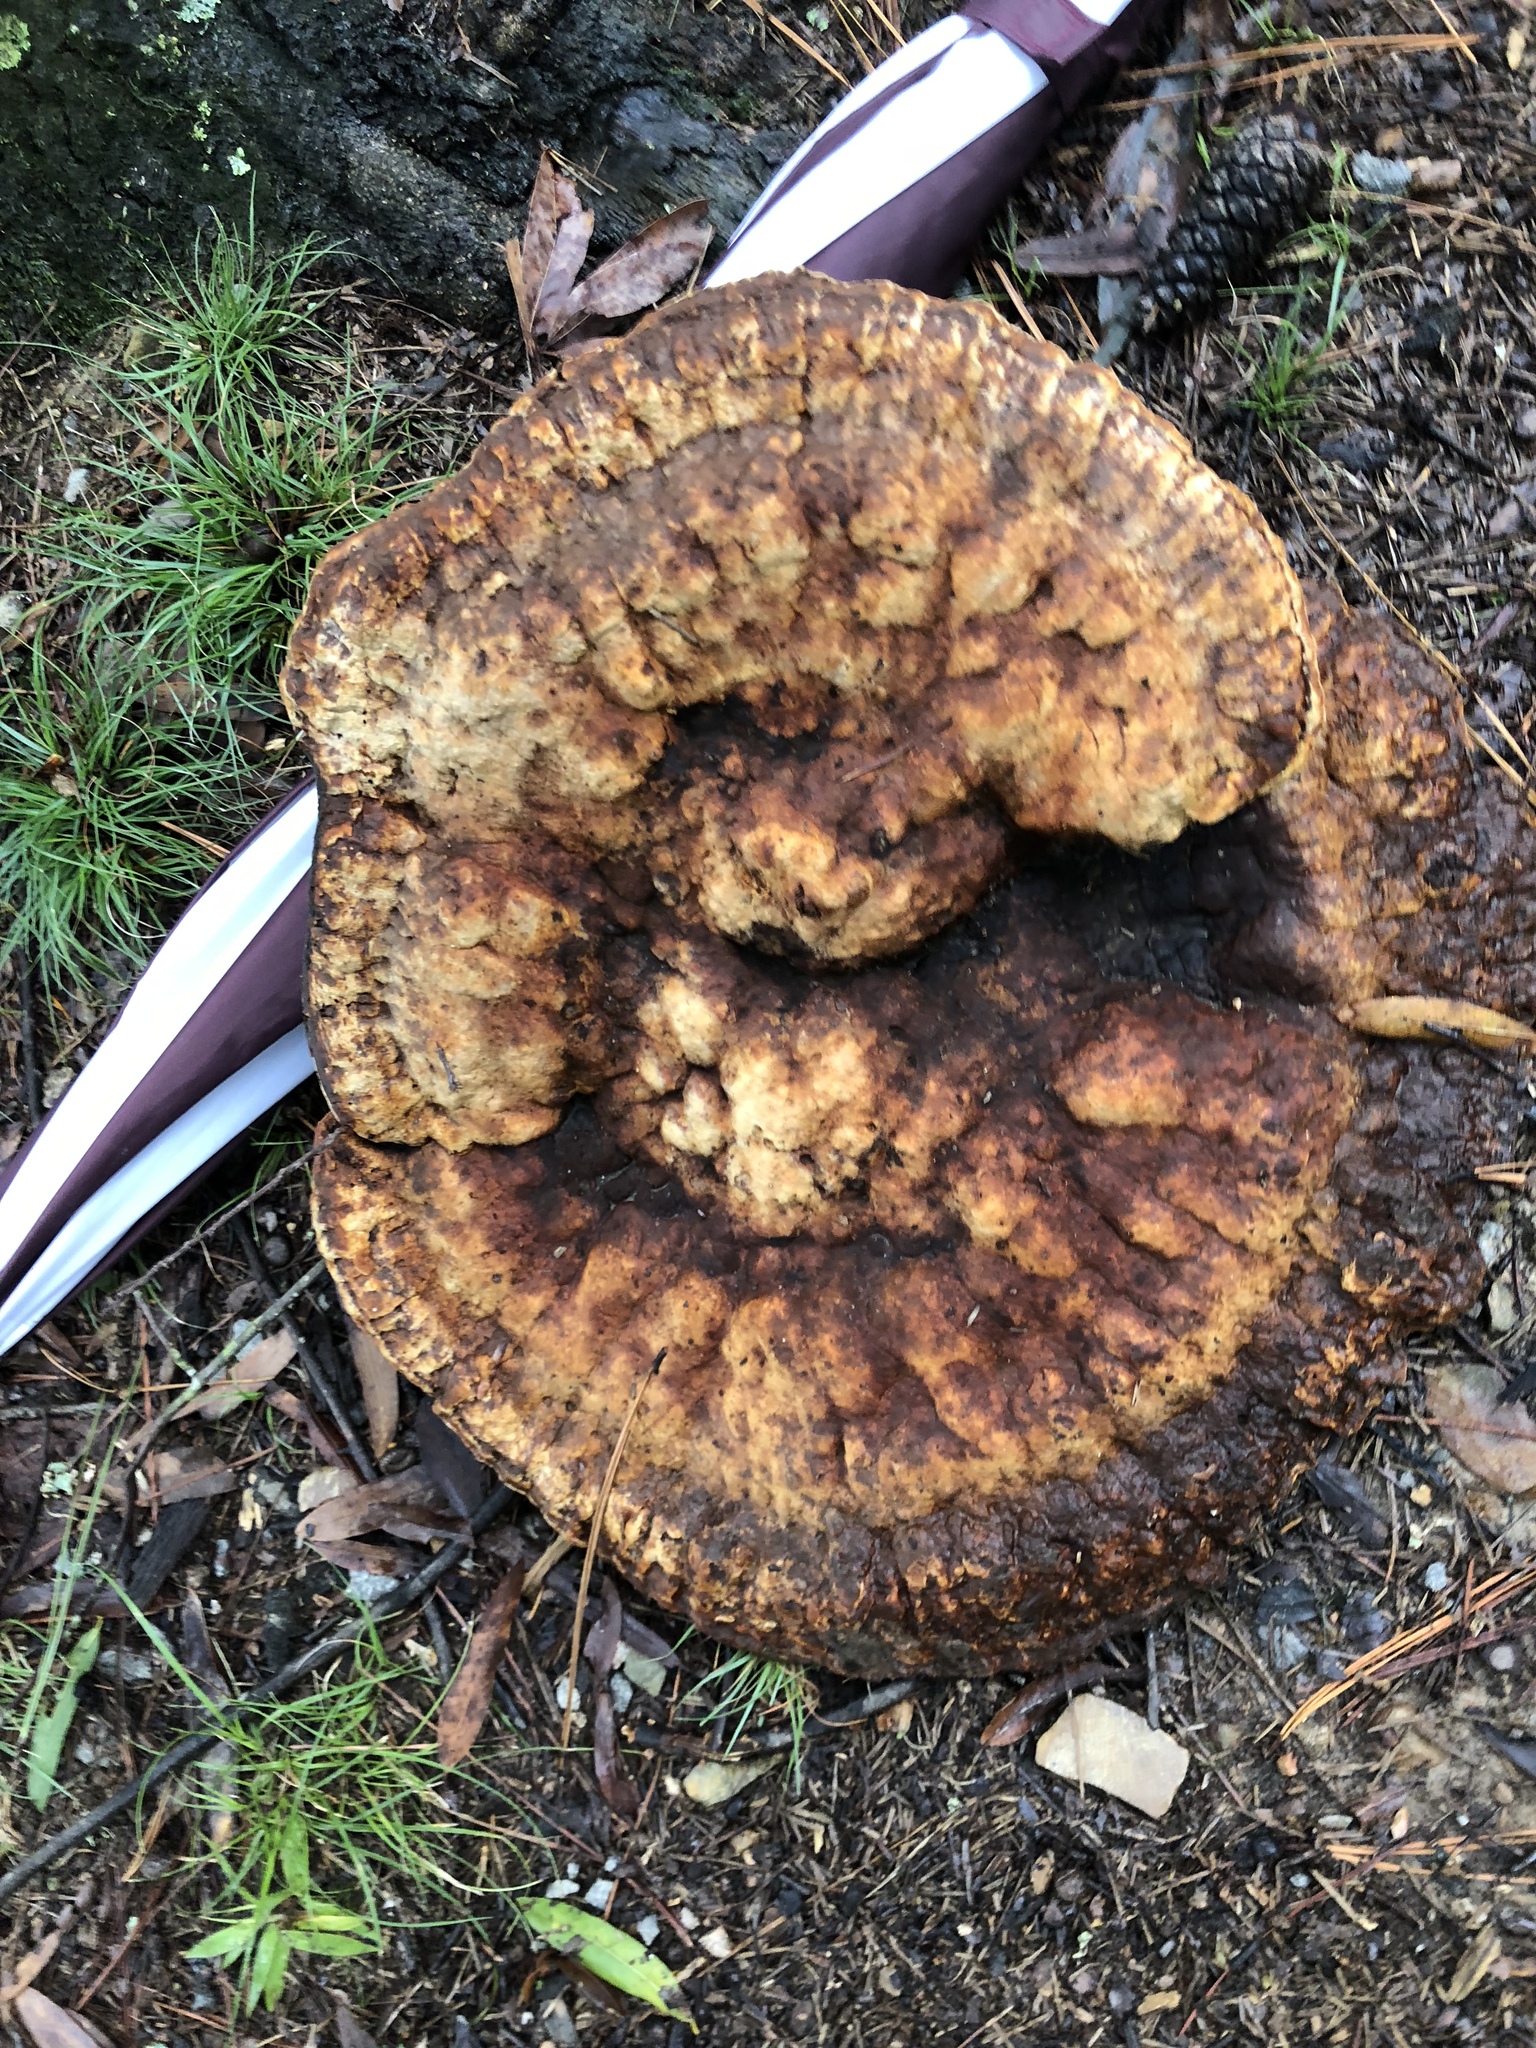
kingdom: Fungi
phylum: Basidiomycota
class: Agaricomycetes
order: Polyporales
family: Laetiporaceae
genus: Phaeolus
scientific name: Phaeolus schweinitzii
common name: Dyer's mazegill
